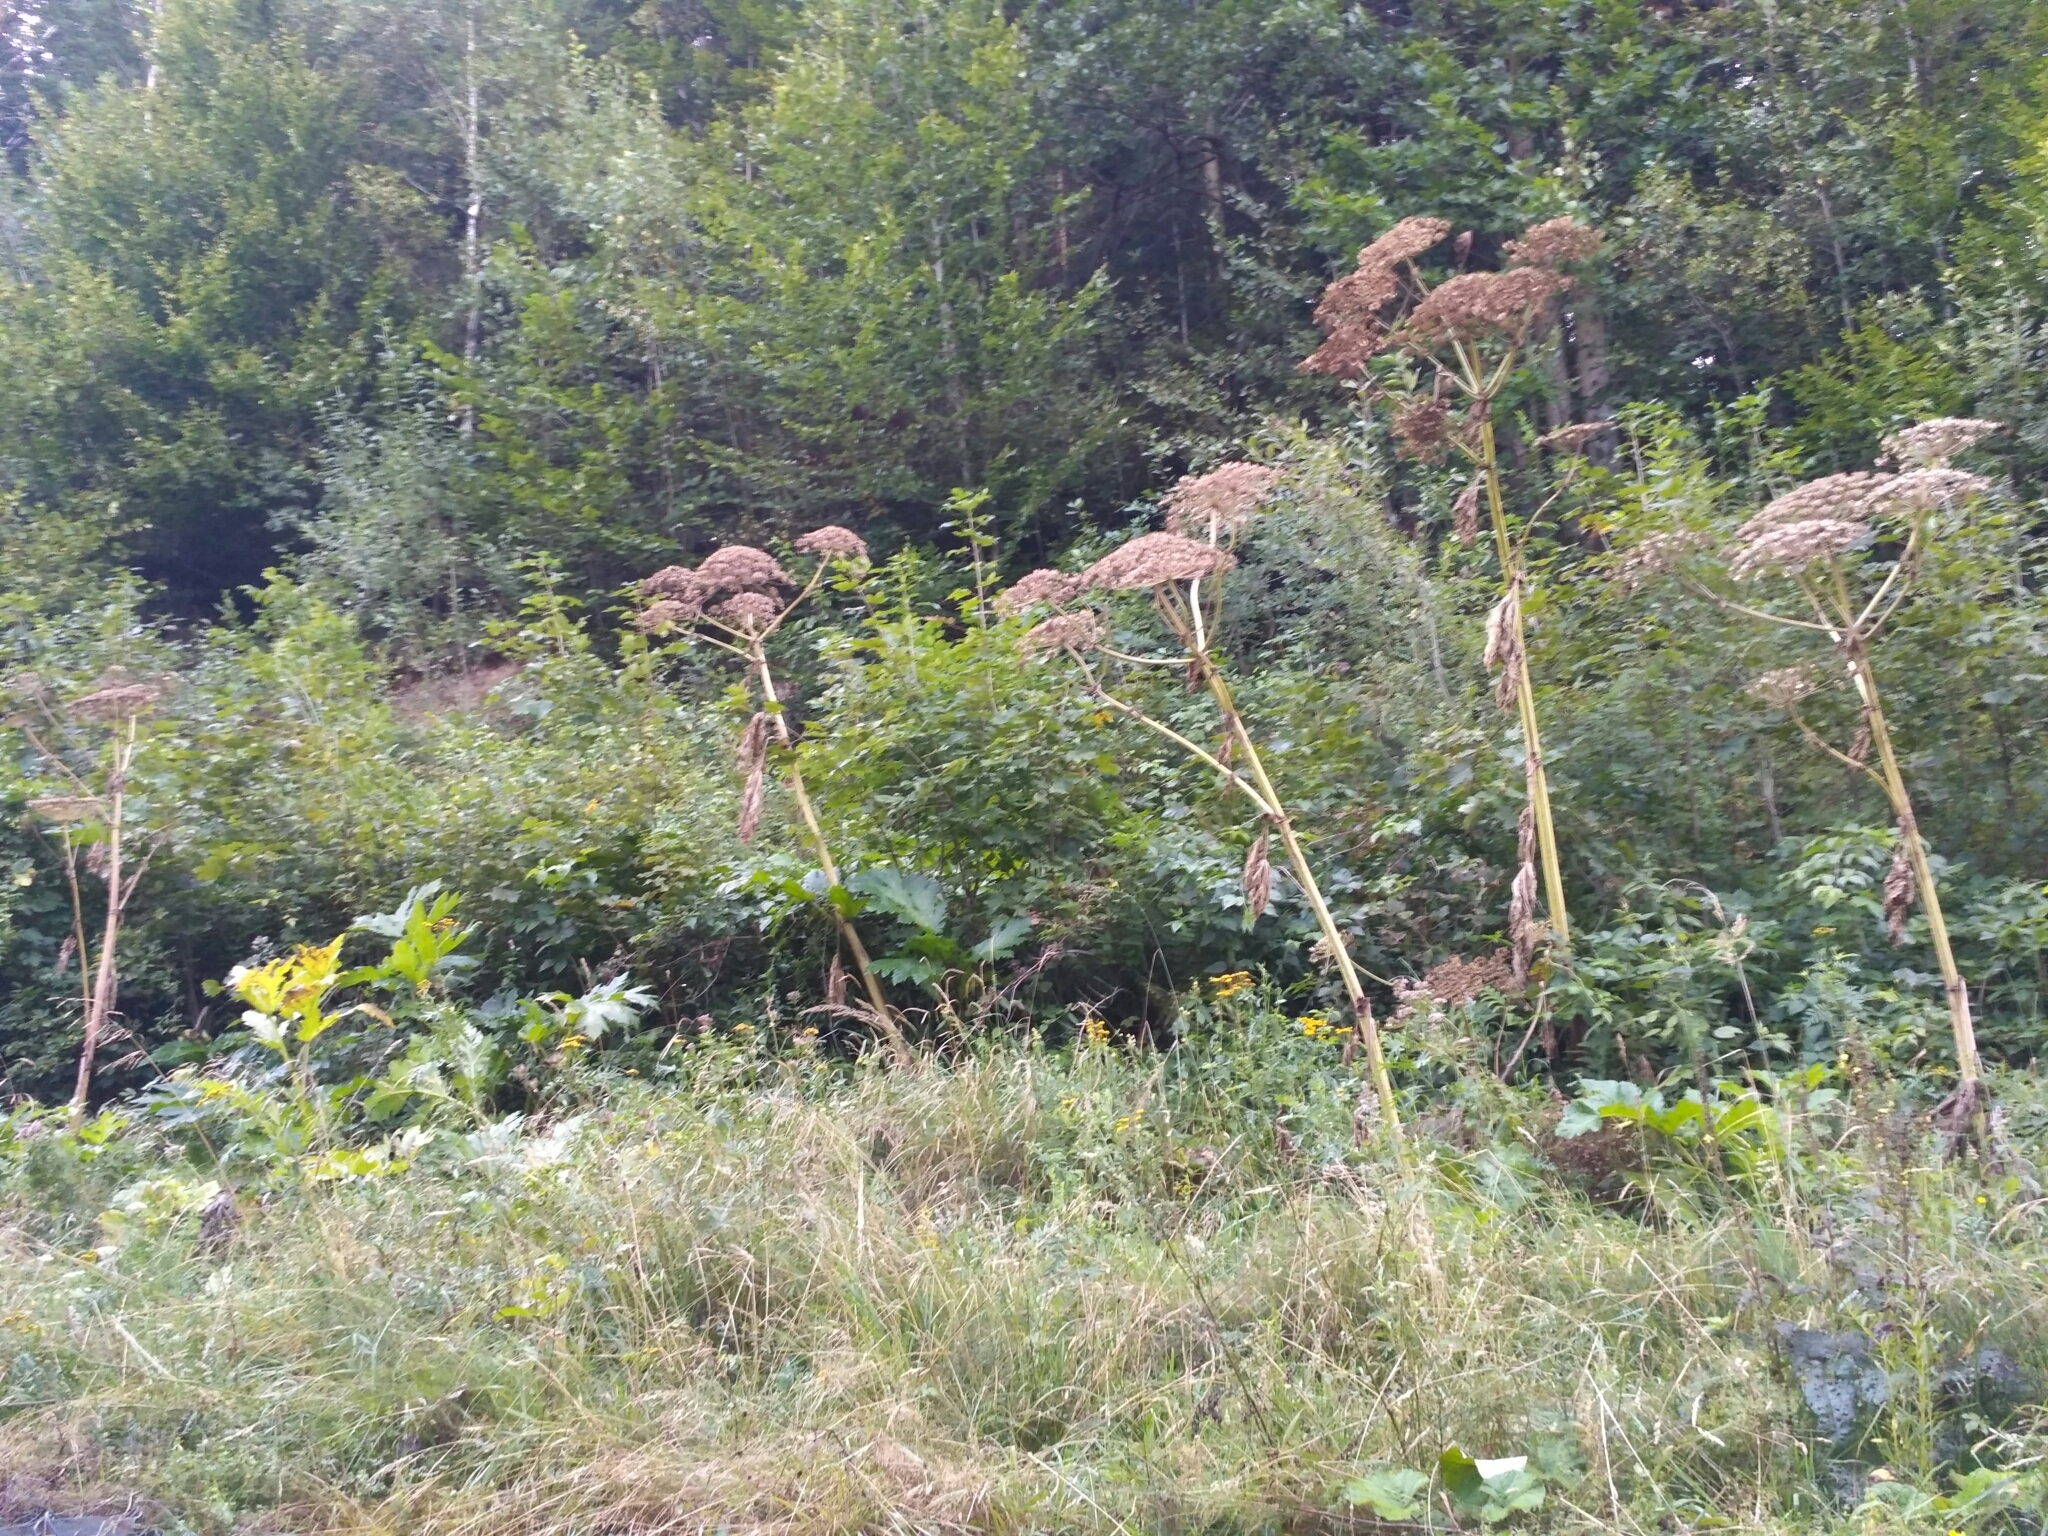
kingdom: Plantae
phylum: Tracheophyta
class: Magnoliopsida
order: Apiales
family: Apiaceae
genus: Heracleum
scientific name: Heracleum sosnowskyi
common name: Sosnowsky's hogweed
